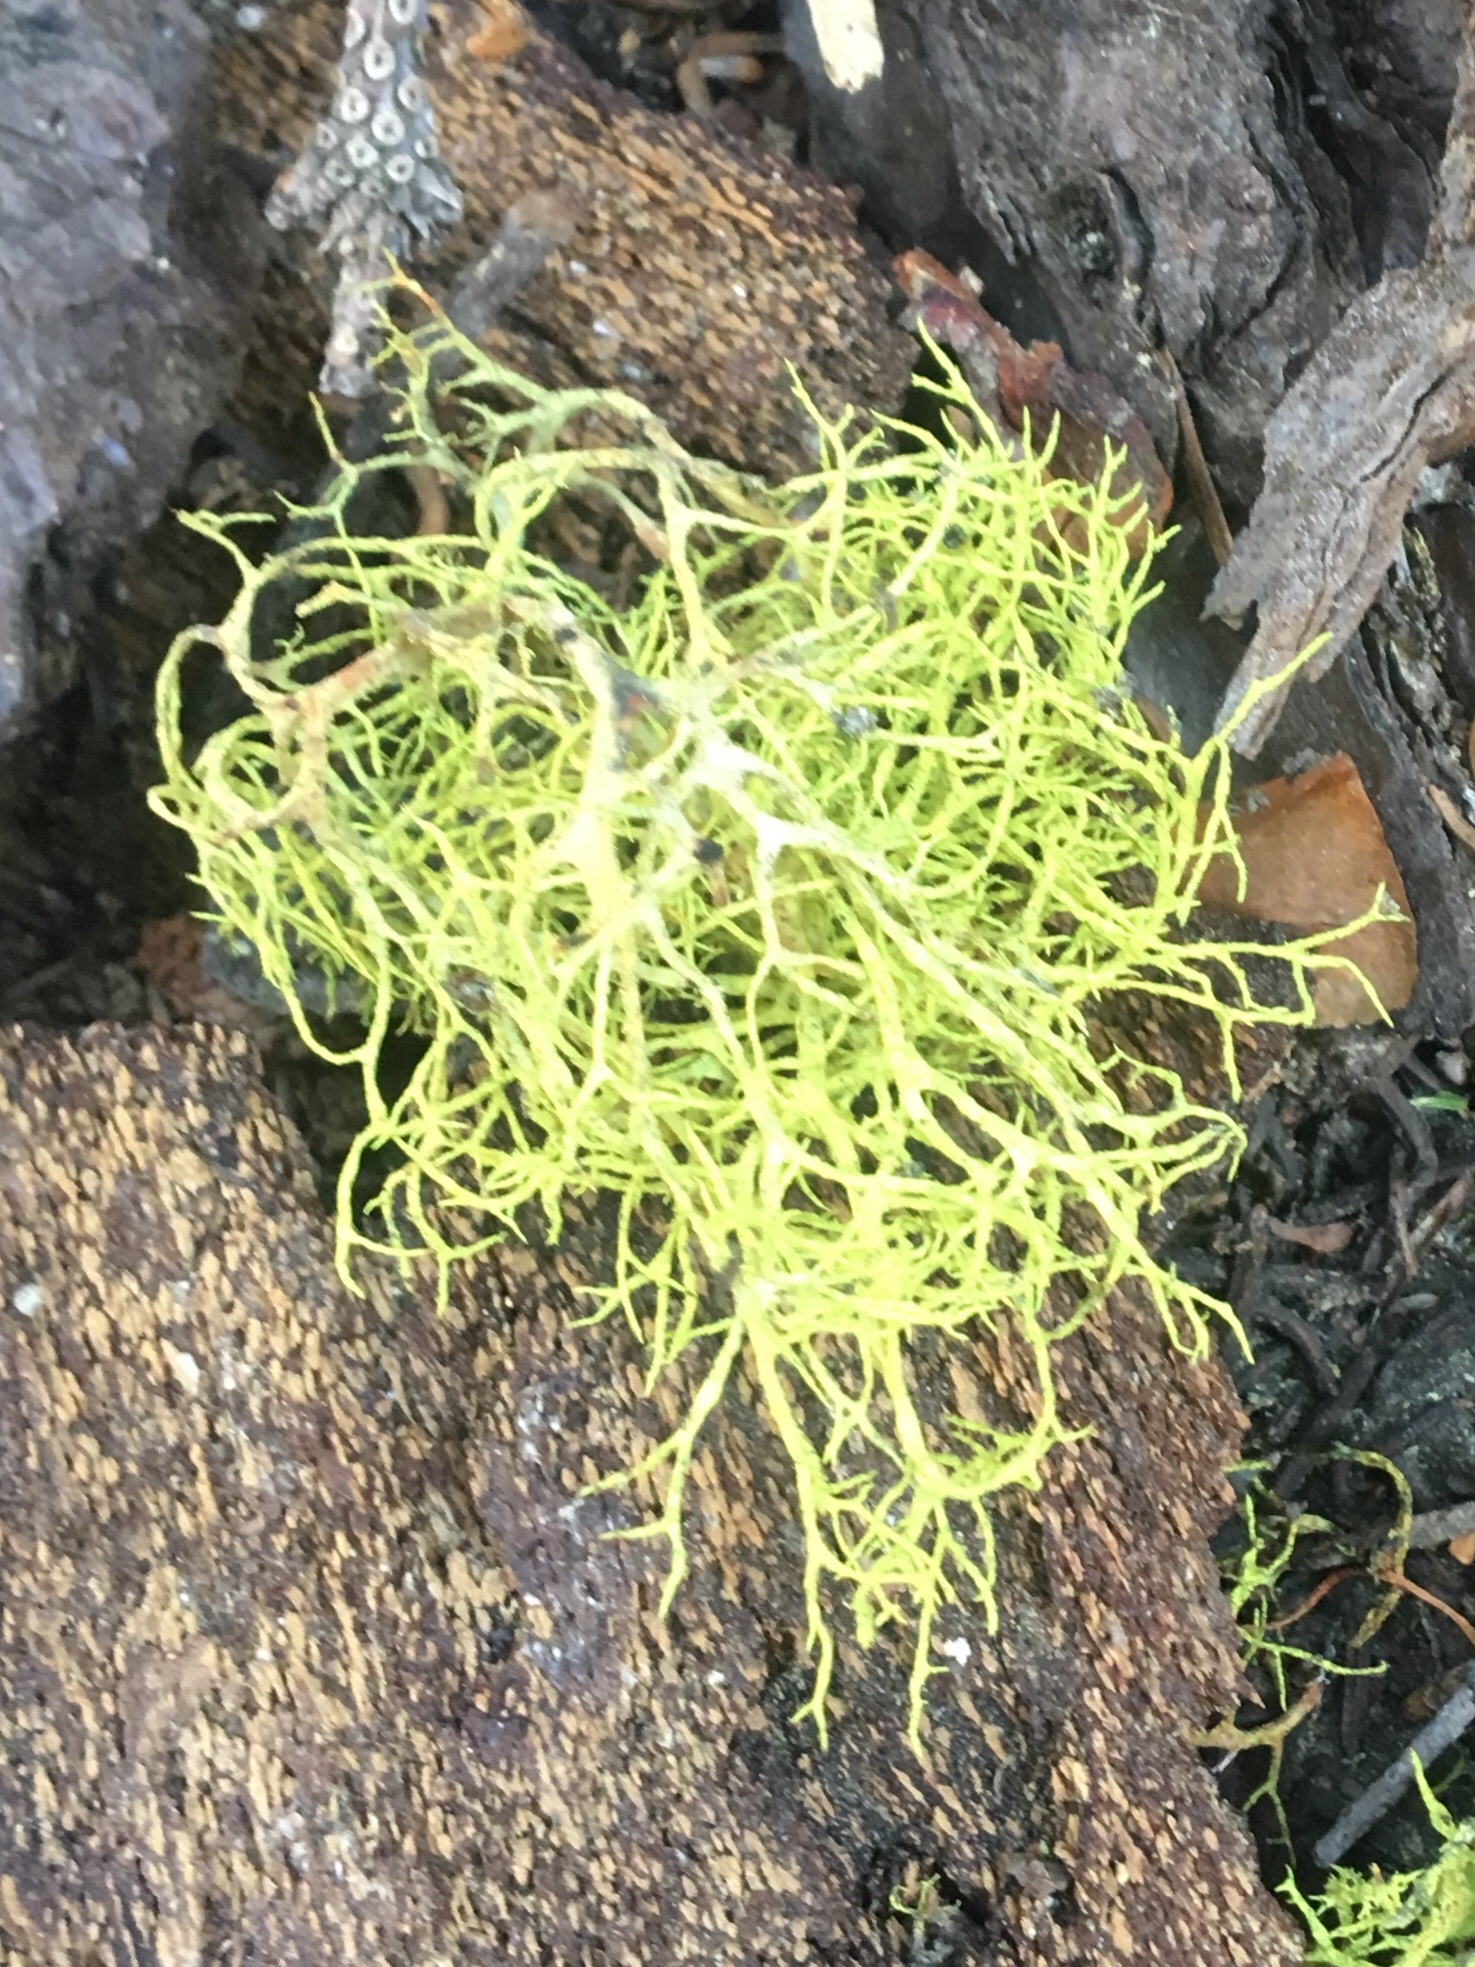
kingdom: Fungi
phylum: Ascomycota
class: Lecanoromycetes
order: Lecanorales
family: Parmeliaceae
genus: Letharia
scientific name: Letharia vulpina
